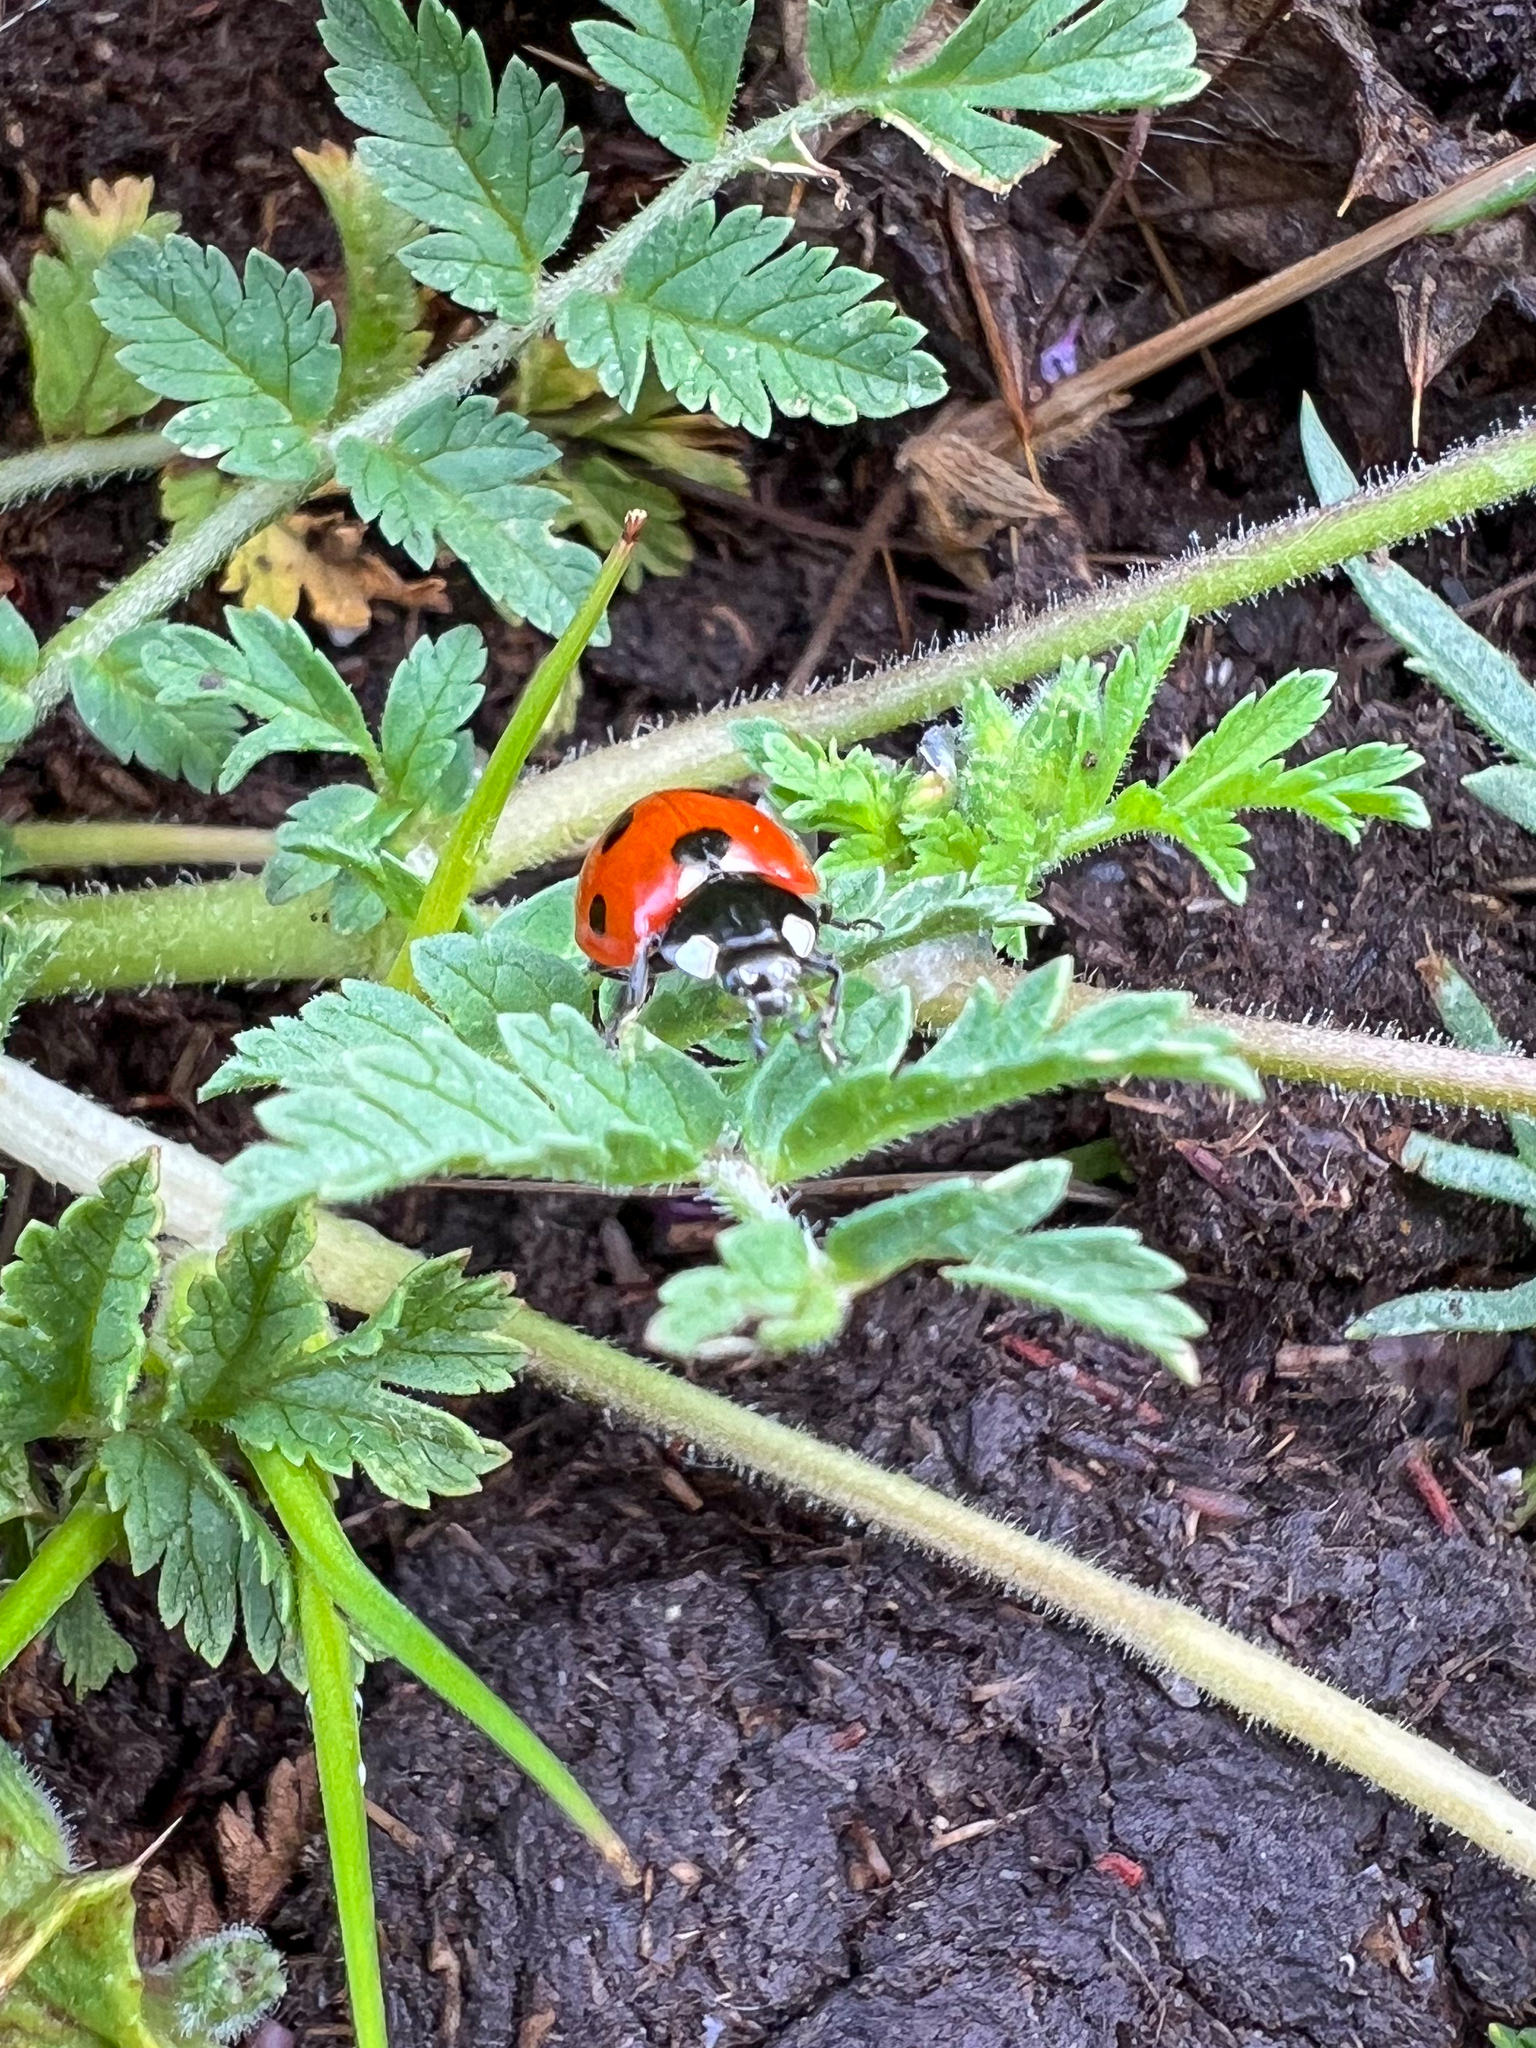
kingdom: Animalia
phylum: Arthropoda
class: Insecta
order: Coleoptera
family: Coccinellidae
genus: Coccinella
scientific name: Coccinella septempunctata
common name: Sevenspotted lady beetle
